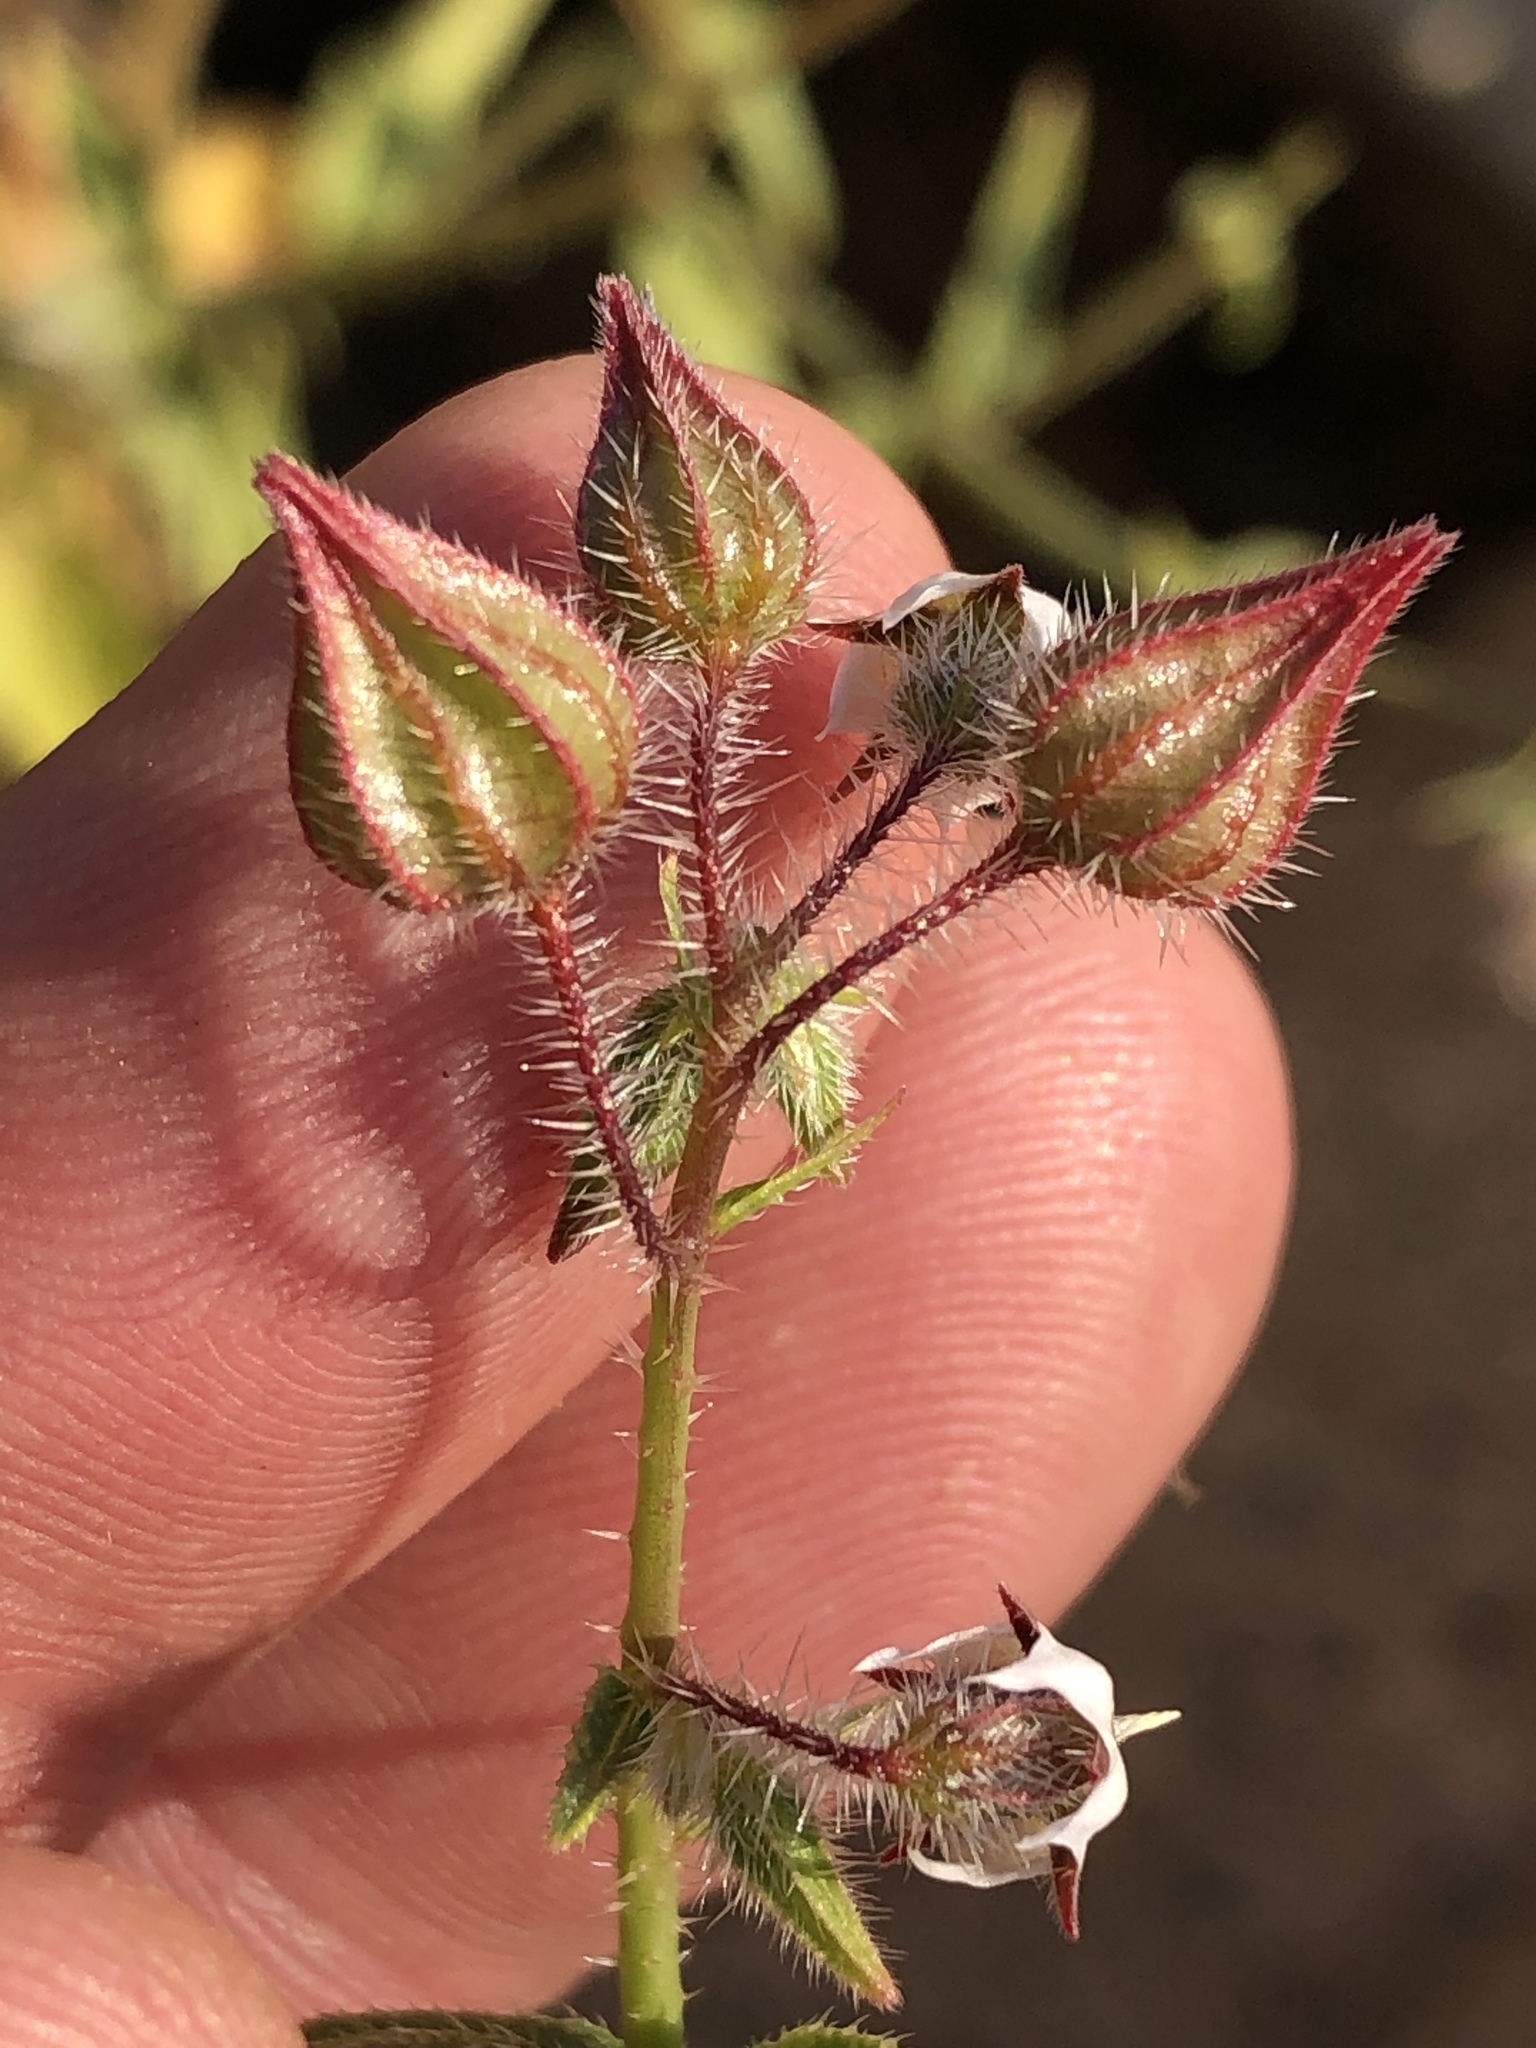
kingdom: Plantae
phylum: Tracheophyta
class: Magnoliopsida
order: Boraginales
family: Boraginaceae
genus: Trichodesma
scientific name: Trichodesma africanum
